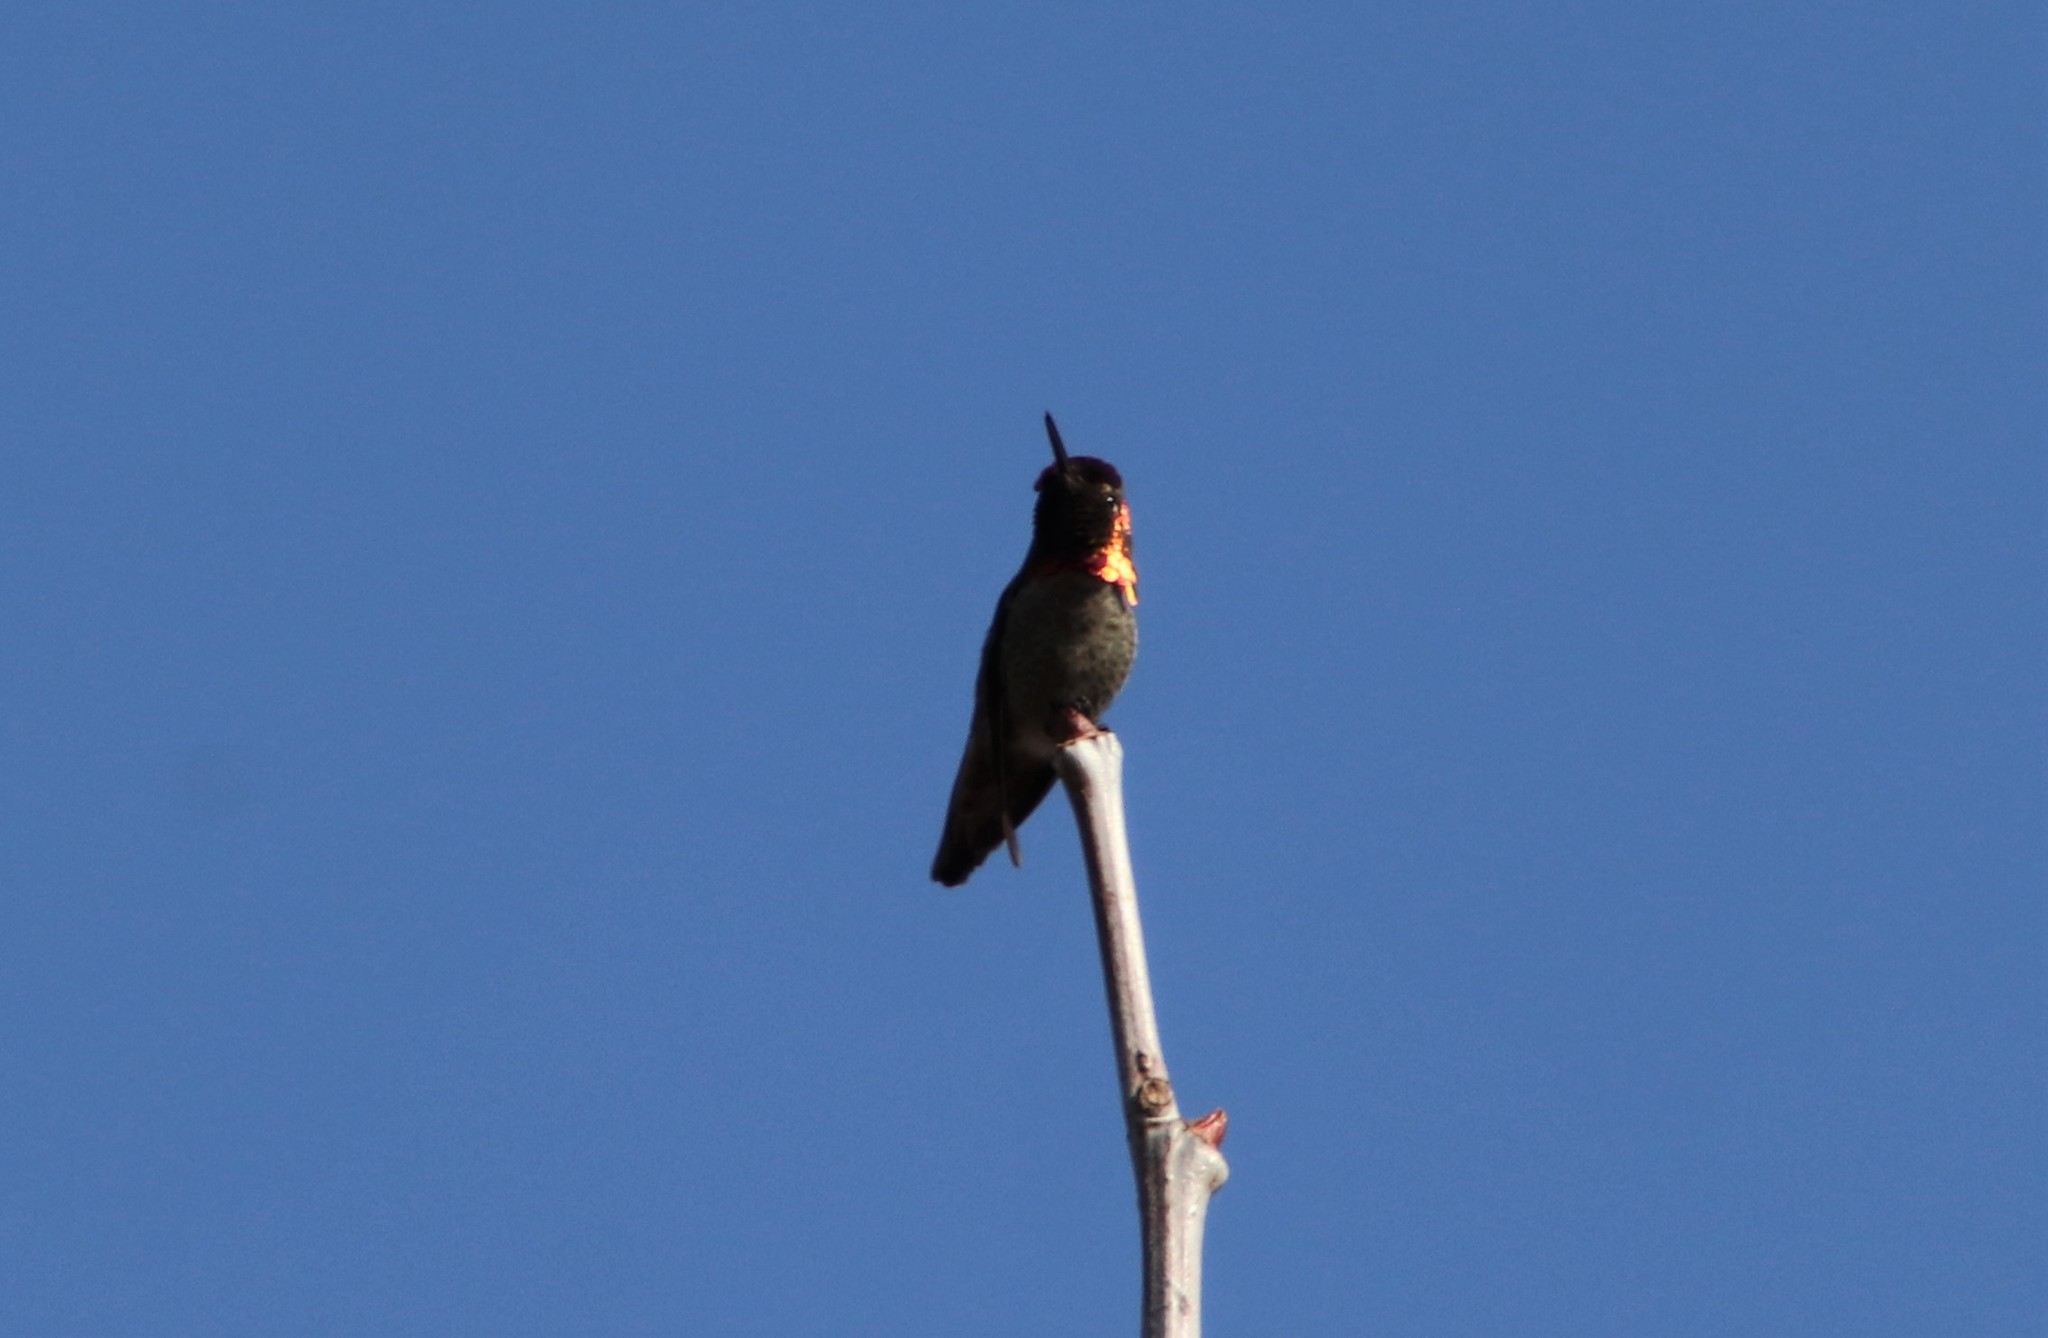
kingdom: Animalia
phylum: Chordata
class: Aves
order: Apodiformes
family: Trochilidae
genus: Calypte
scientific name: Calypte anna
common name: Anna's hummingbird
